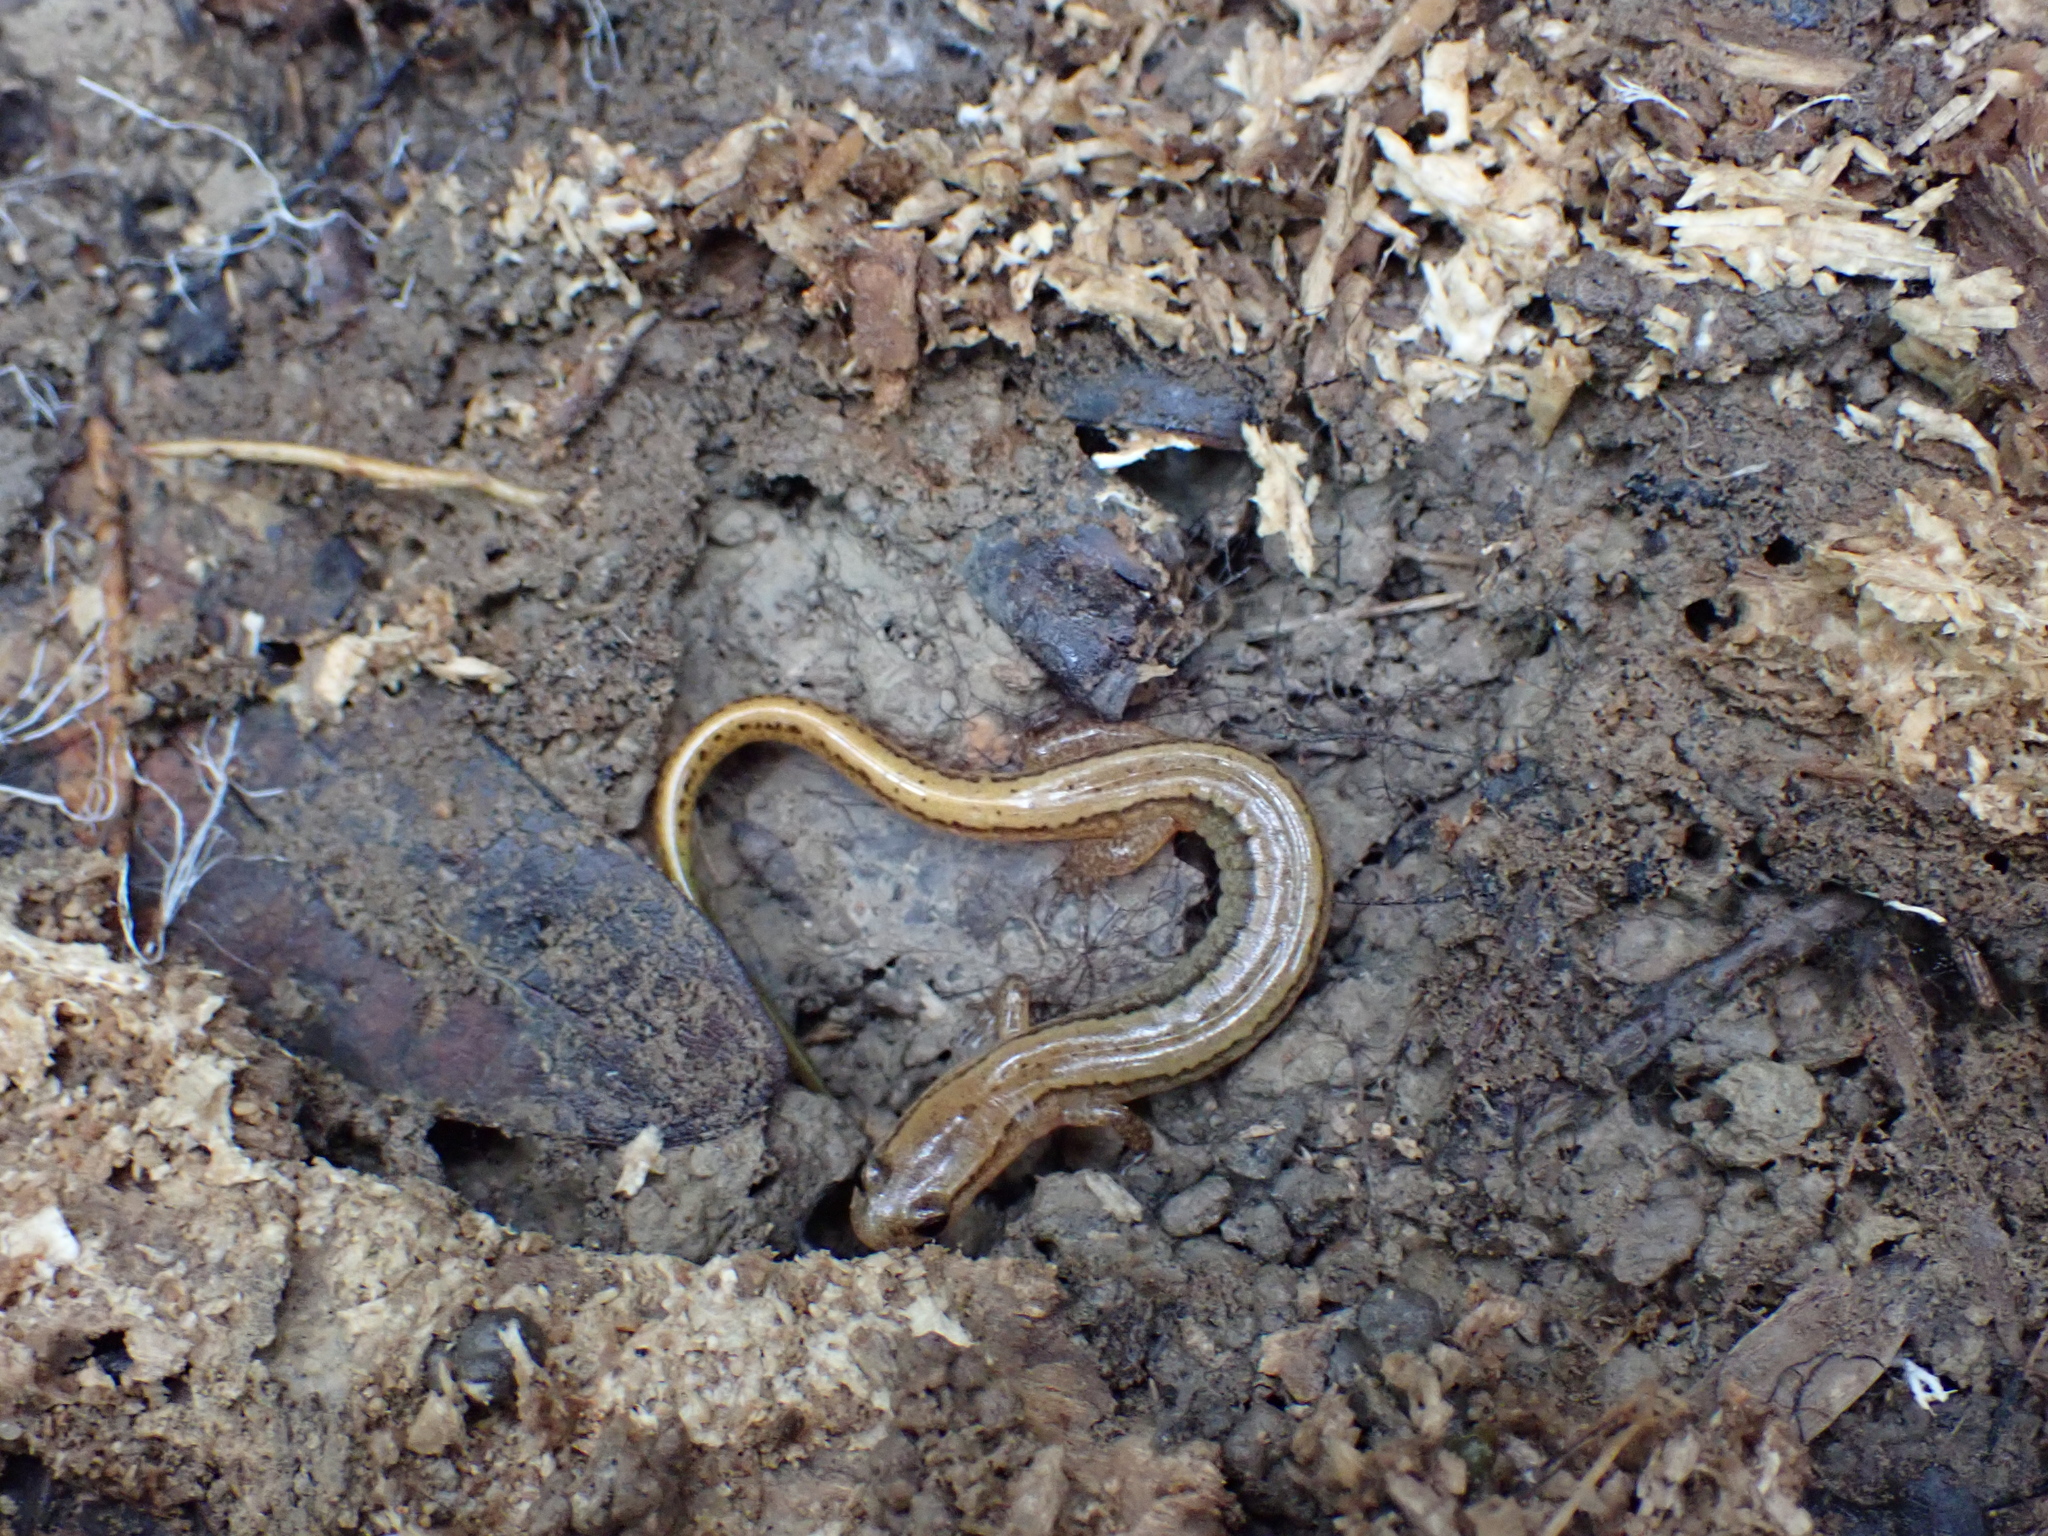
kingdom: Animalia
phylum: Chordata
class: Amphibia
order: Caudata
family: Plethodontidae
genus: Eurycea
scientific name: Eurycea cirrigera
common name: Southern two-lined salamander
